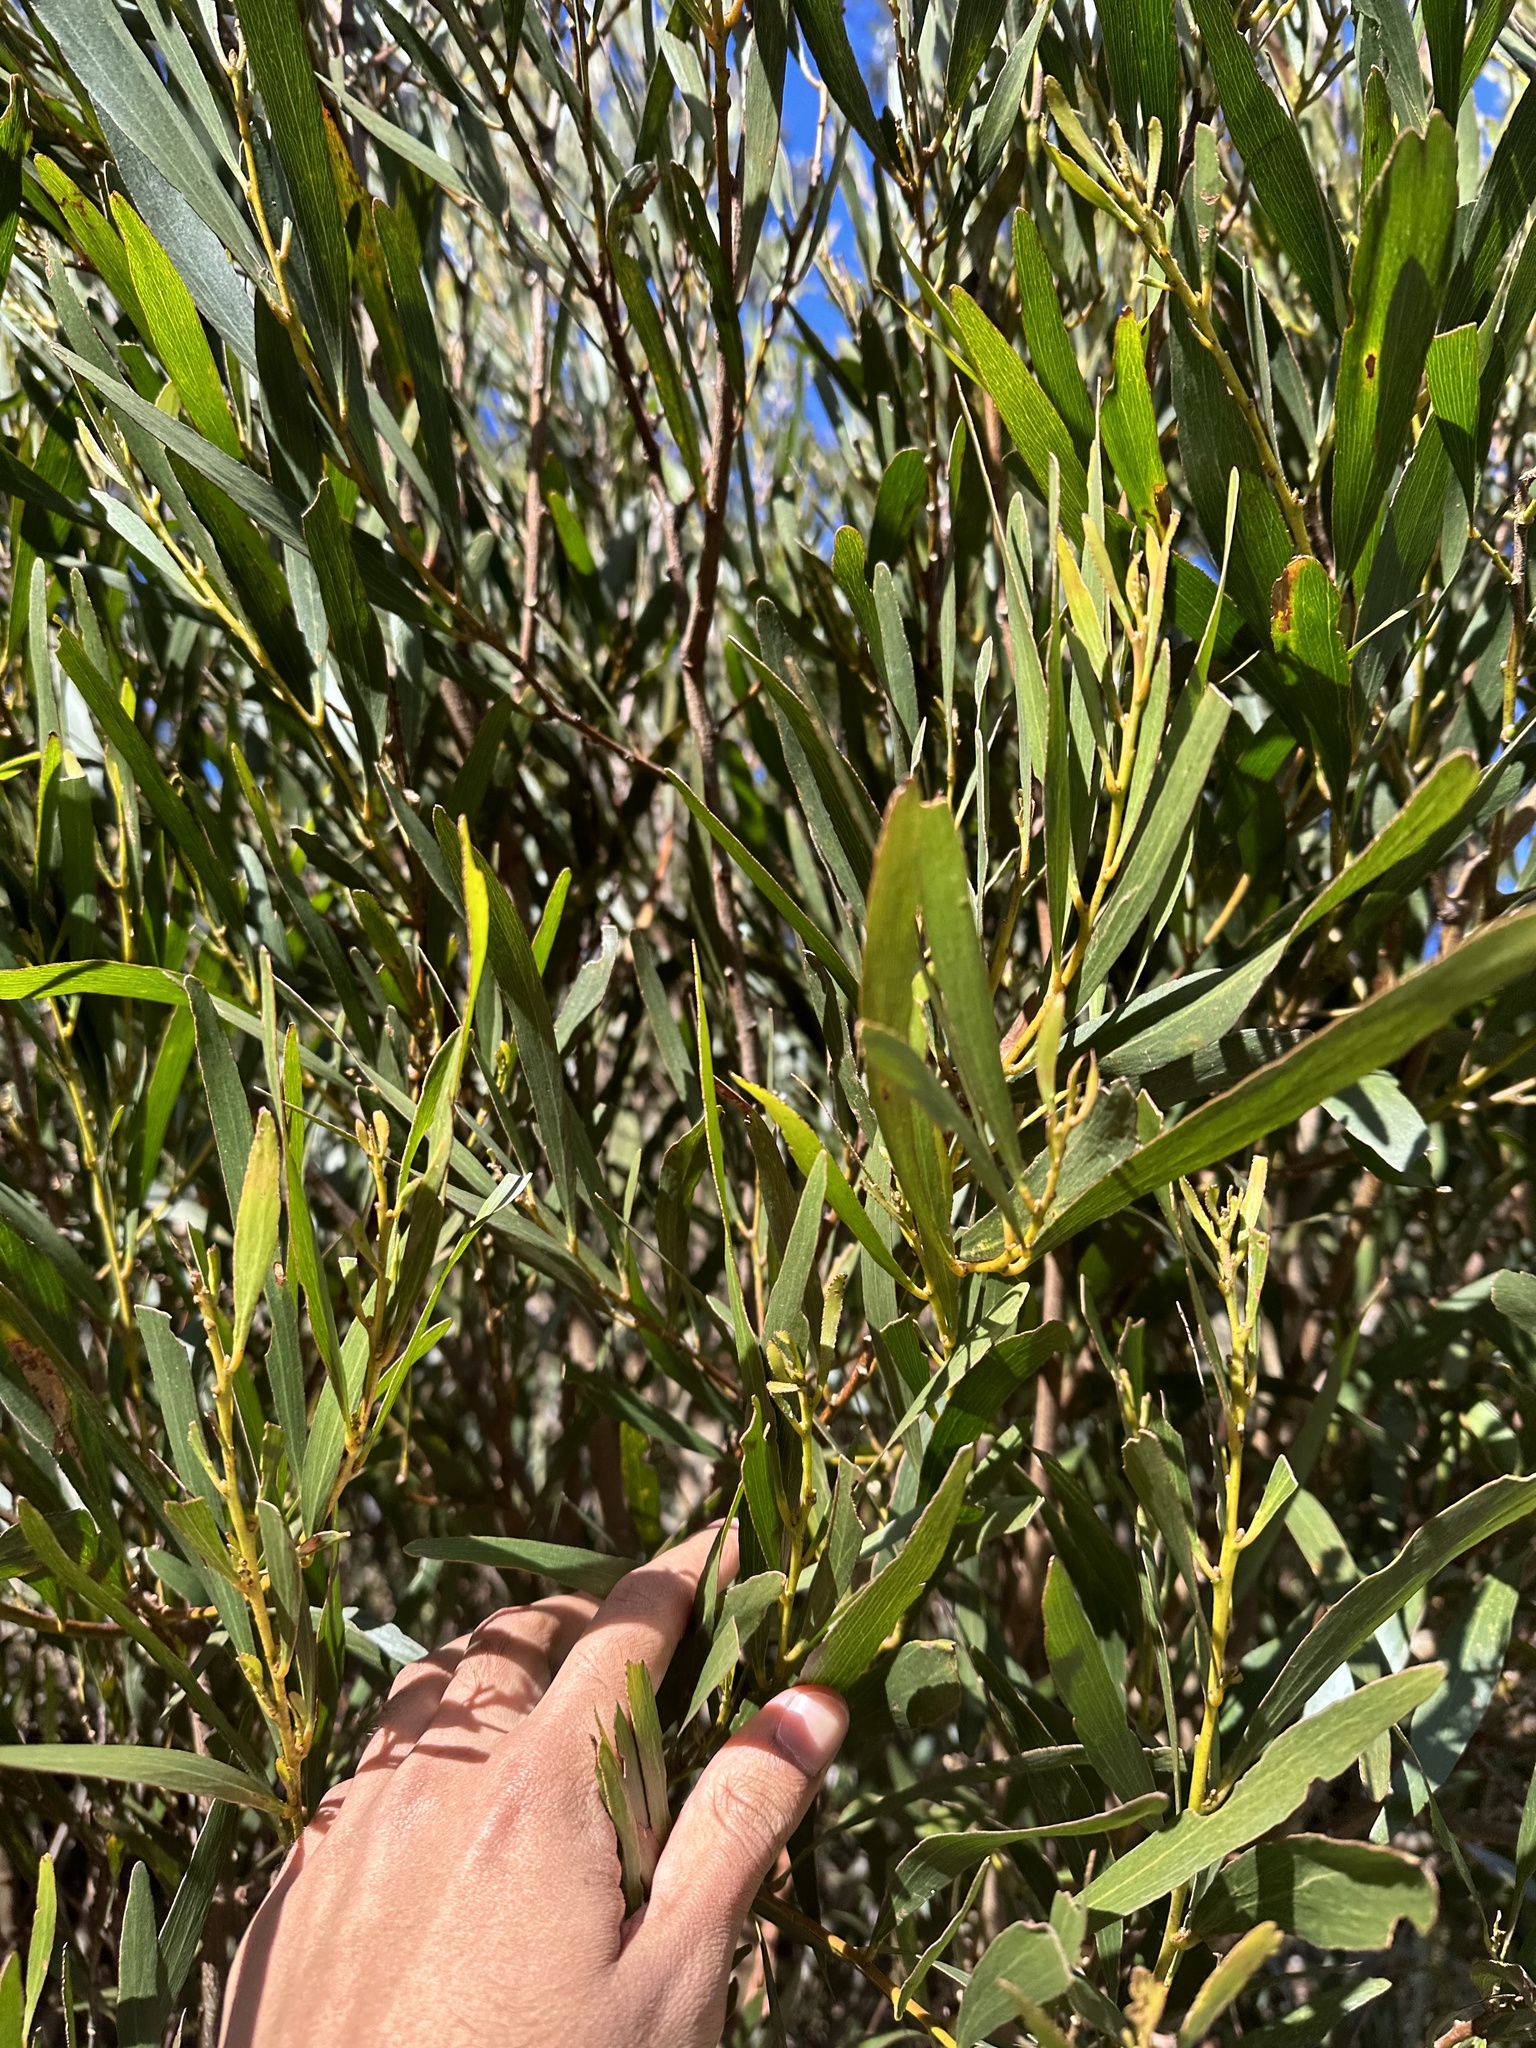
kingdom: Plantae
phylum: Tracheophyta
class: Magnoliopsida
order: Fabales
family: Fabaceae
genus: Acacia
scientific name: Acacia obtusifolia
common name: Stiff-leaf wattle
